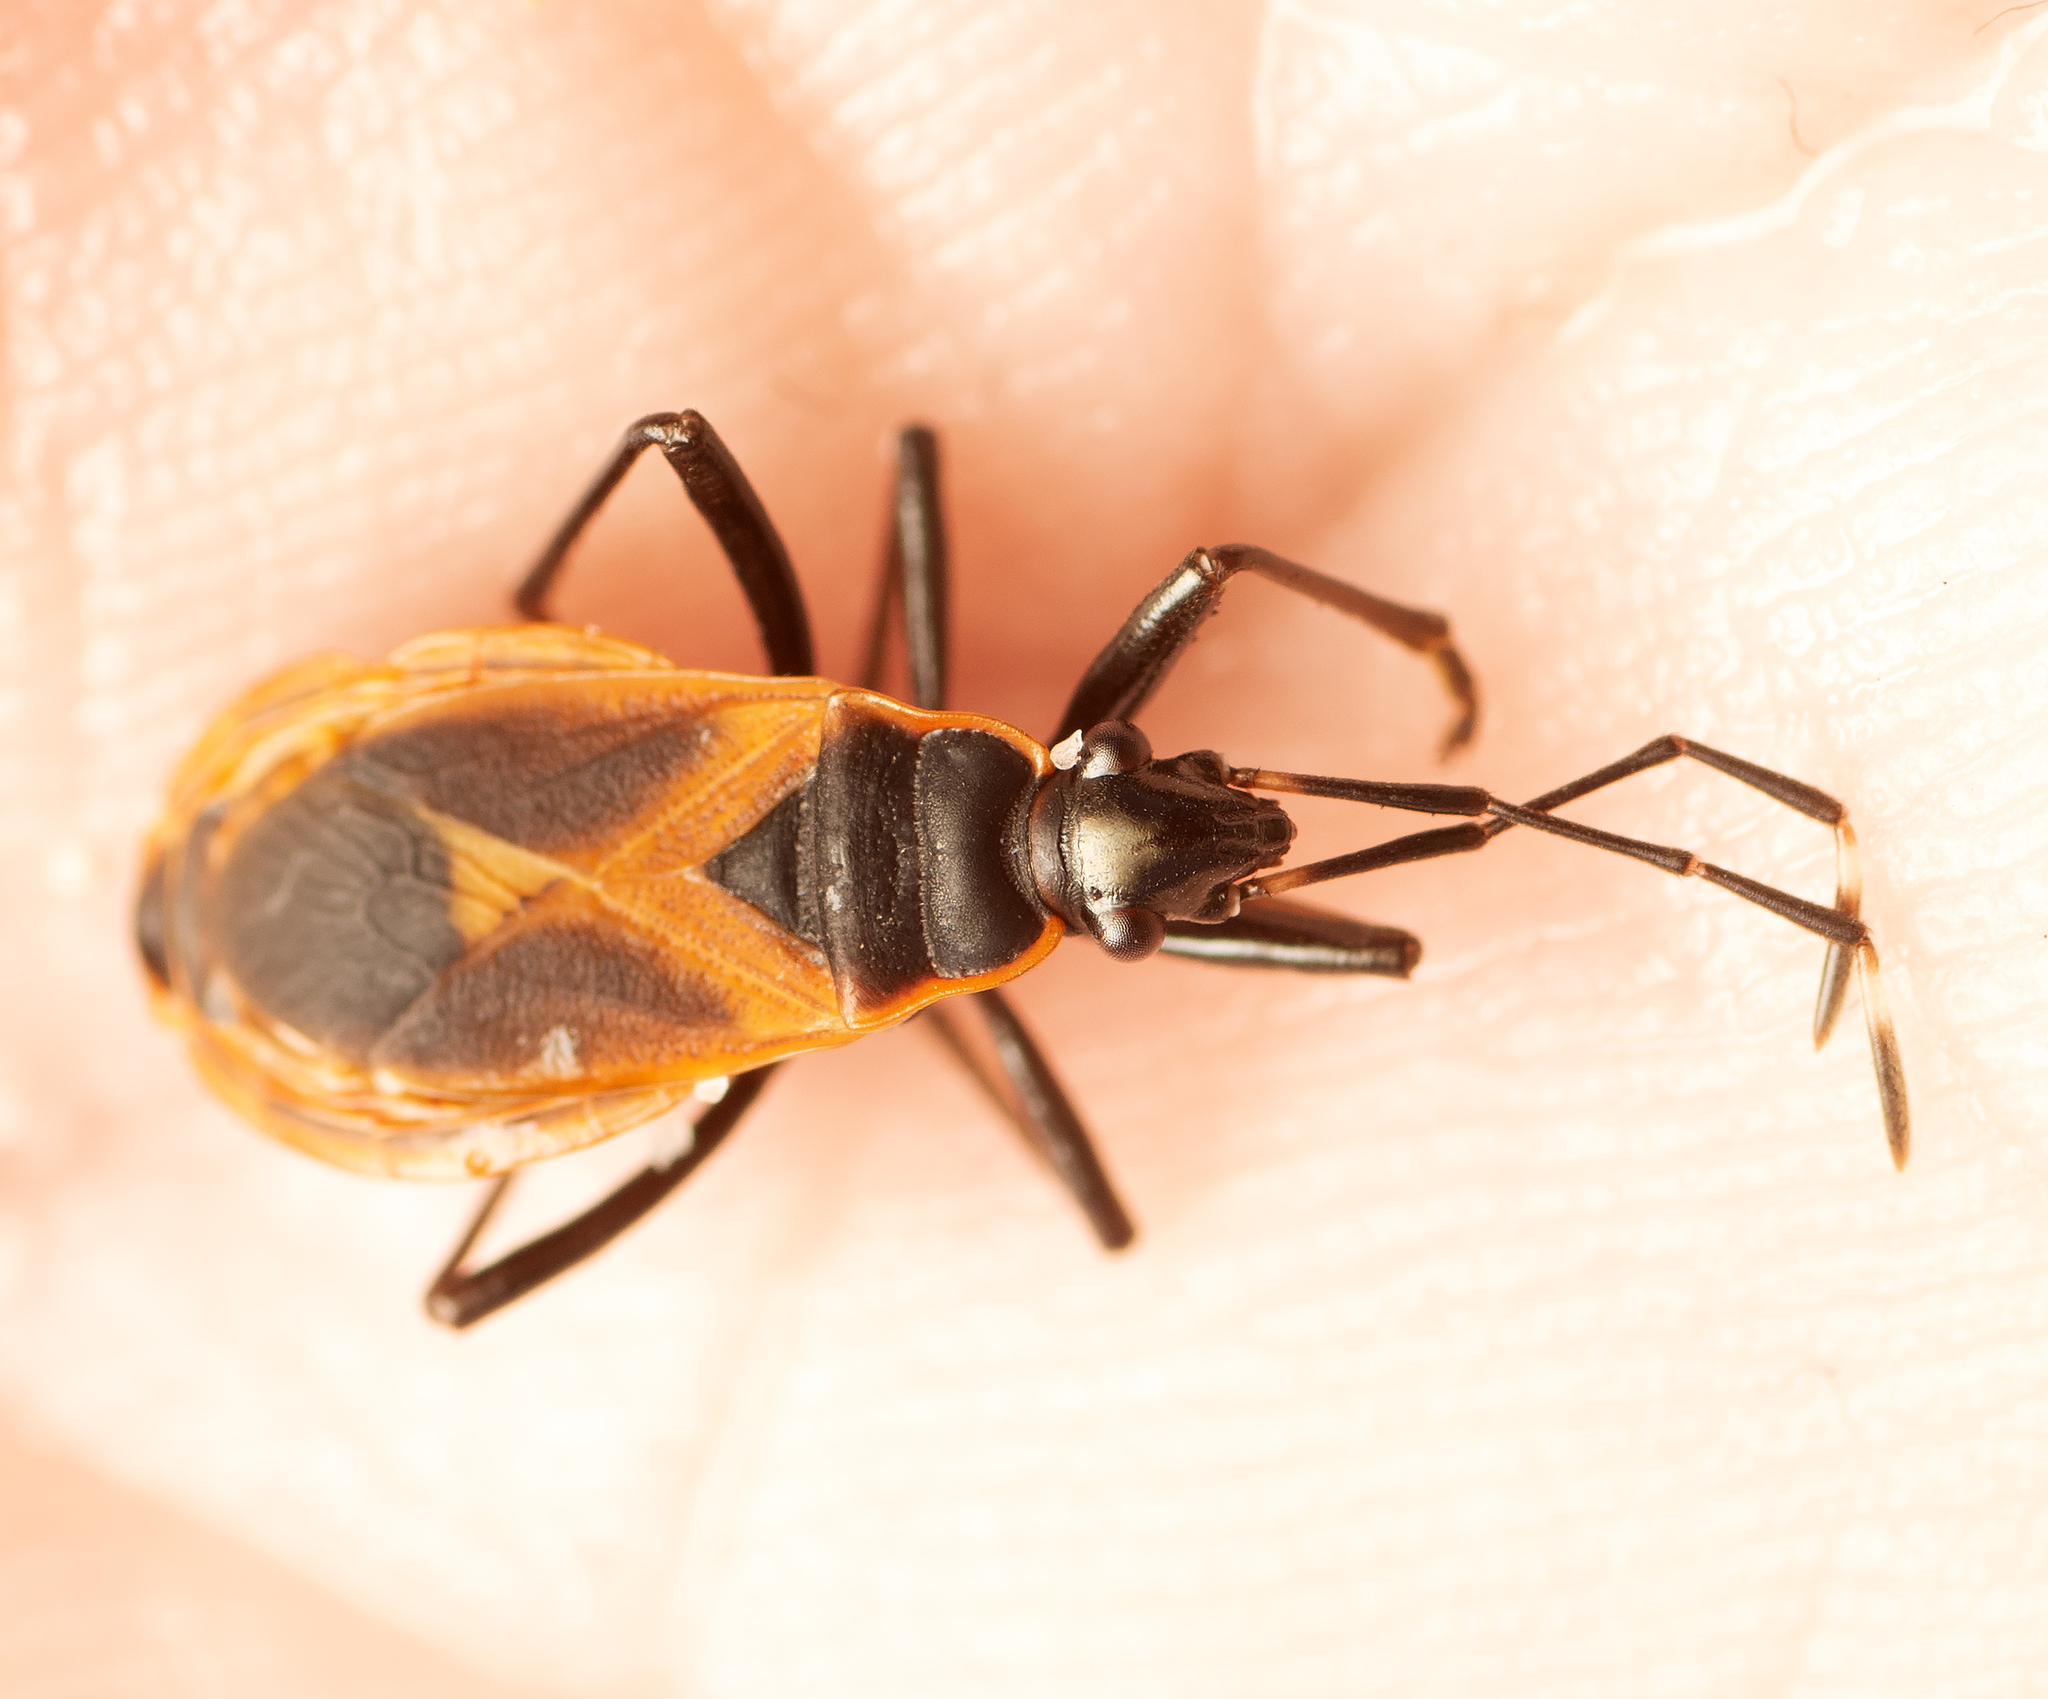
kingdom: Animalia
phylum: Arthropoda
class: Insecta
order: Hemiptera
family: Pyrrhocoridae
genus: Dindymus
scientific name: Dindymus
